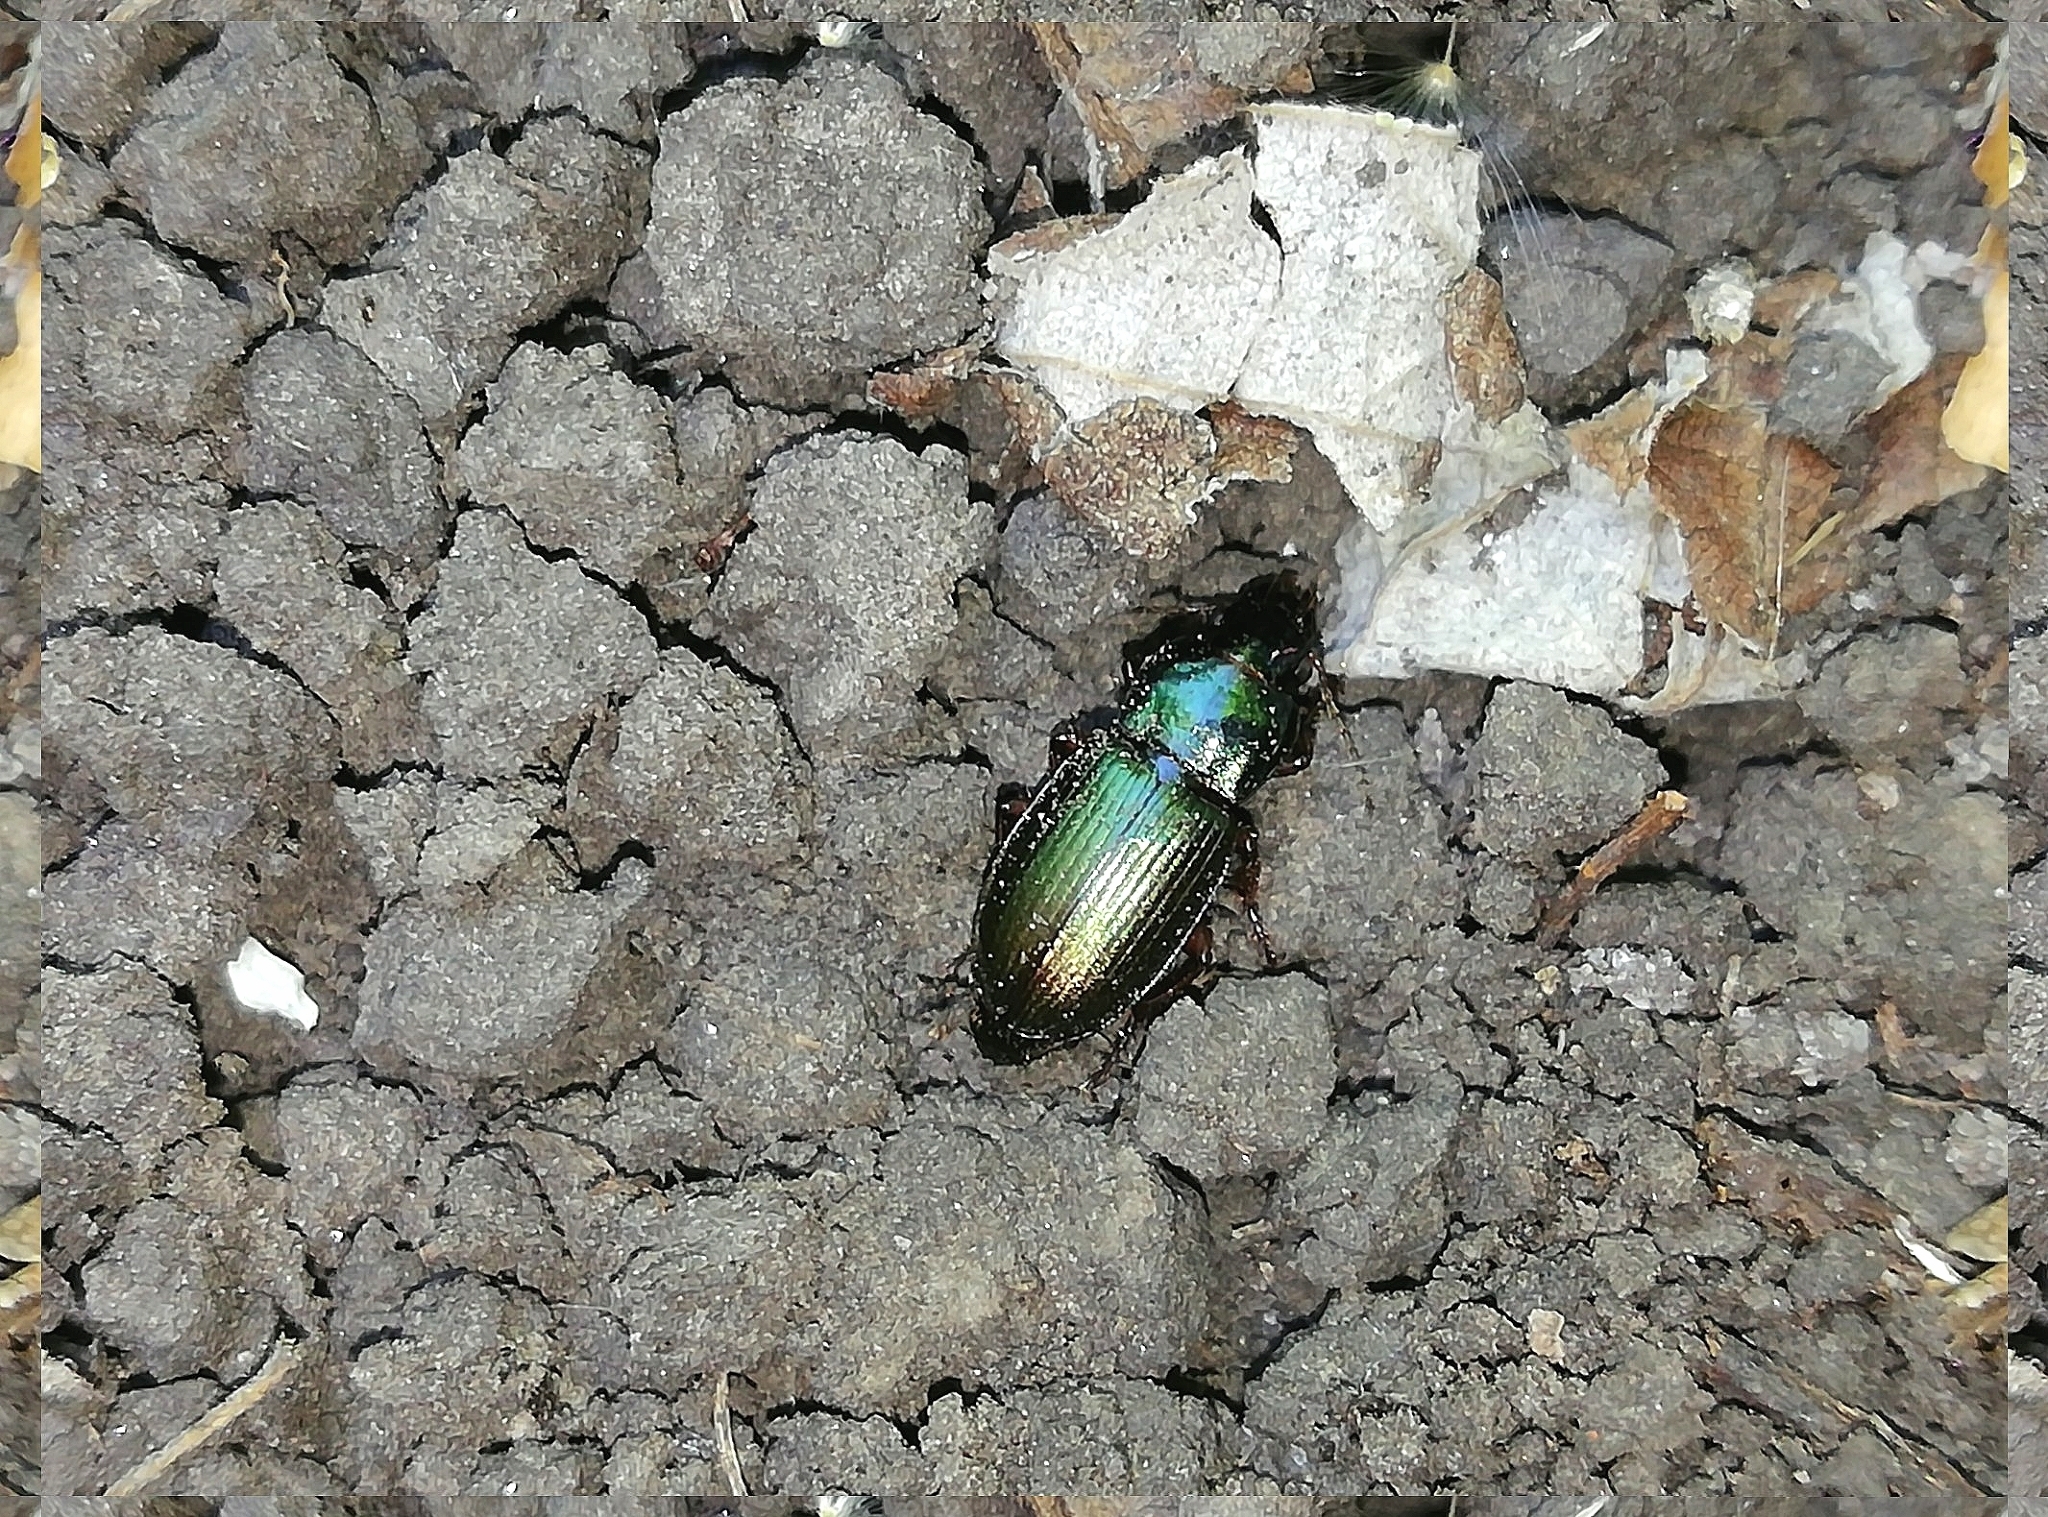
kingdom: Animalia
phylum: Arthropoda
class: Insecta
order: Coleoptera
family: Carabidae
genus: Harpalus
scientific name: Harpalus affinis
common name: Polychrome harp ground beetle
